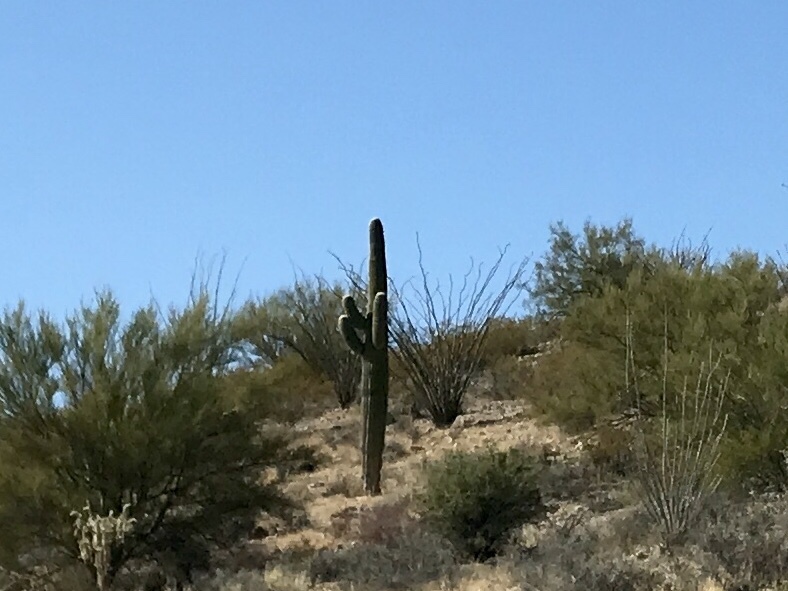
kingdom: Plantae
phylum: Tracheophyta
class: Magnoliopsida
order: Caryophyllales
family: Cactaceae
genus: Carnegiea
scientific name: Carnegiea gigantea
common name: Saguaro
